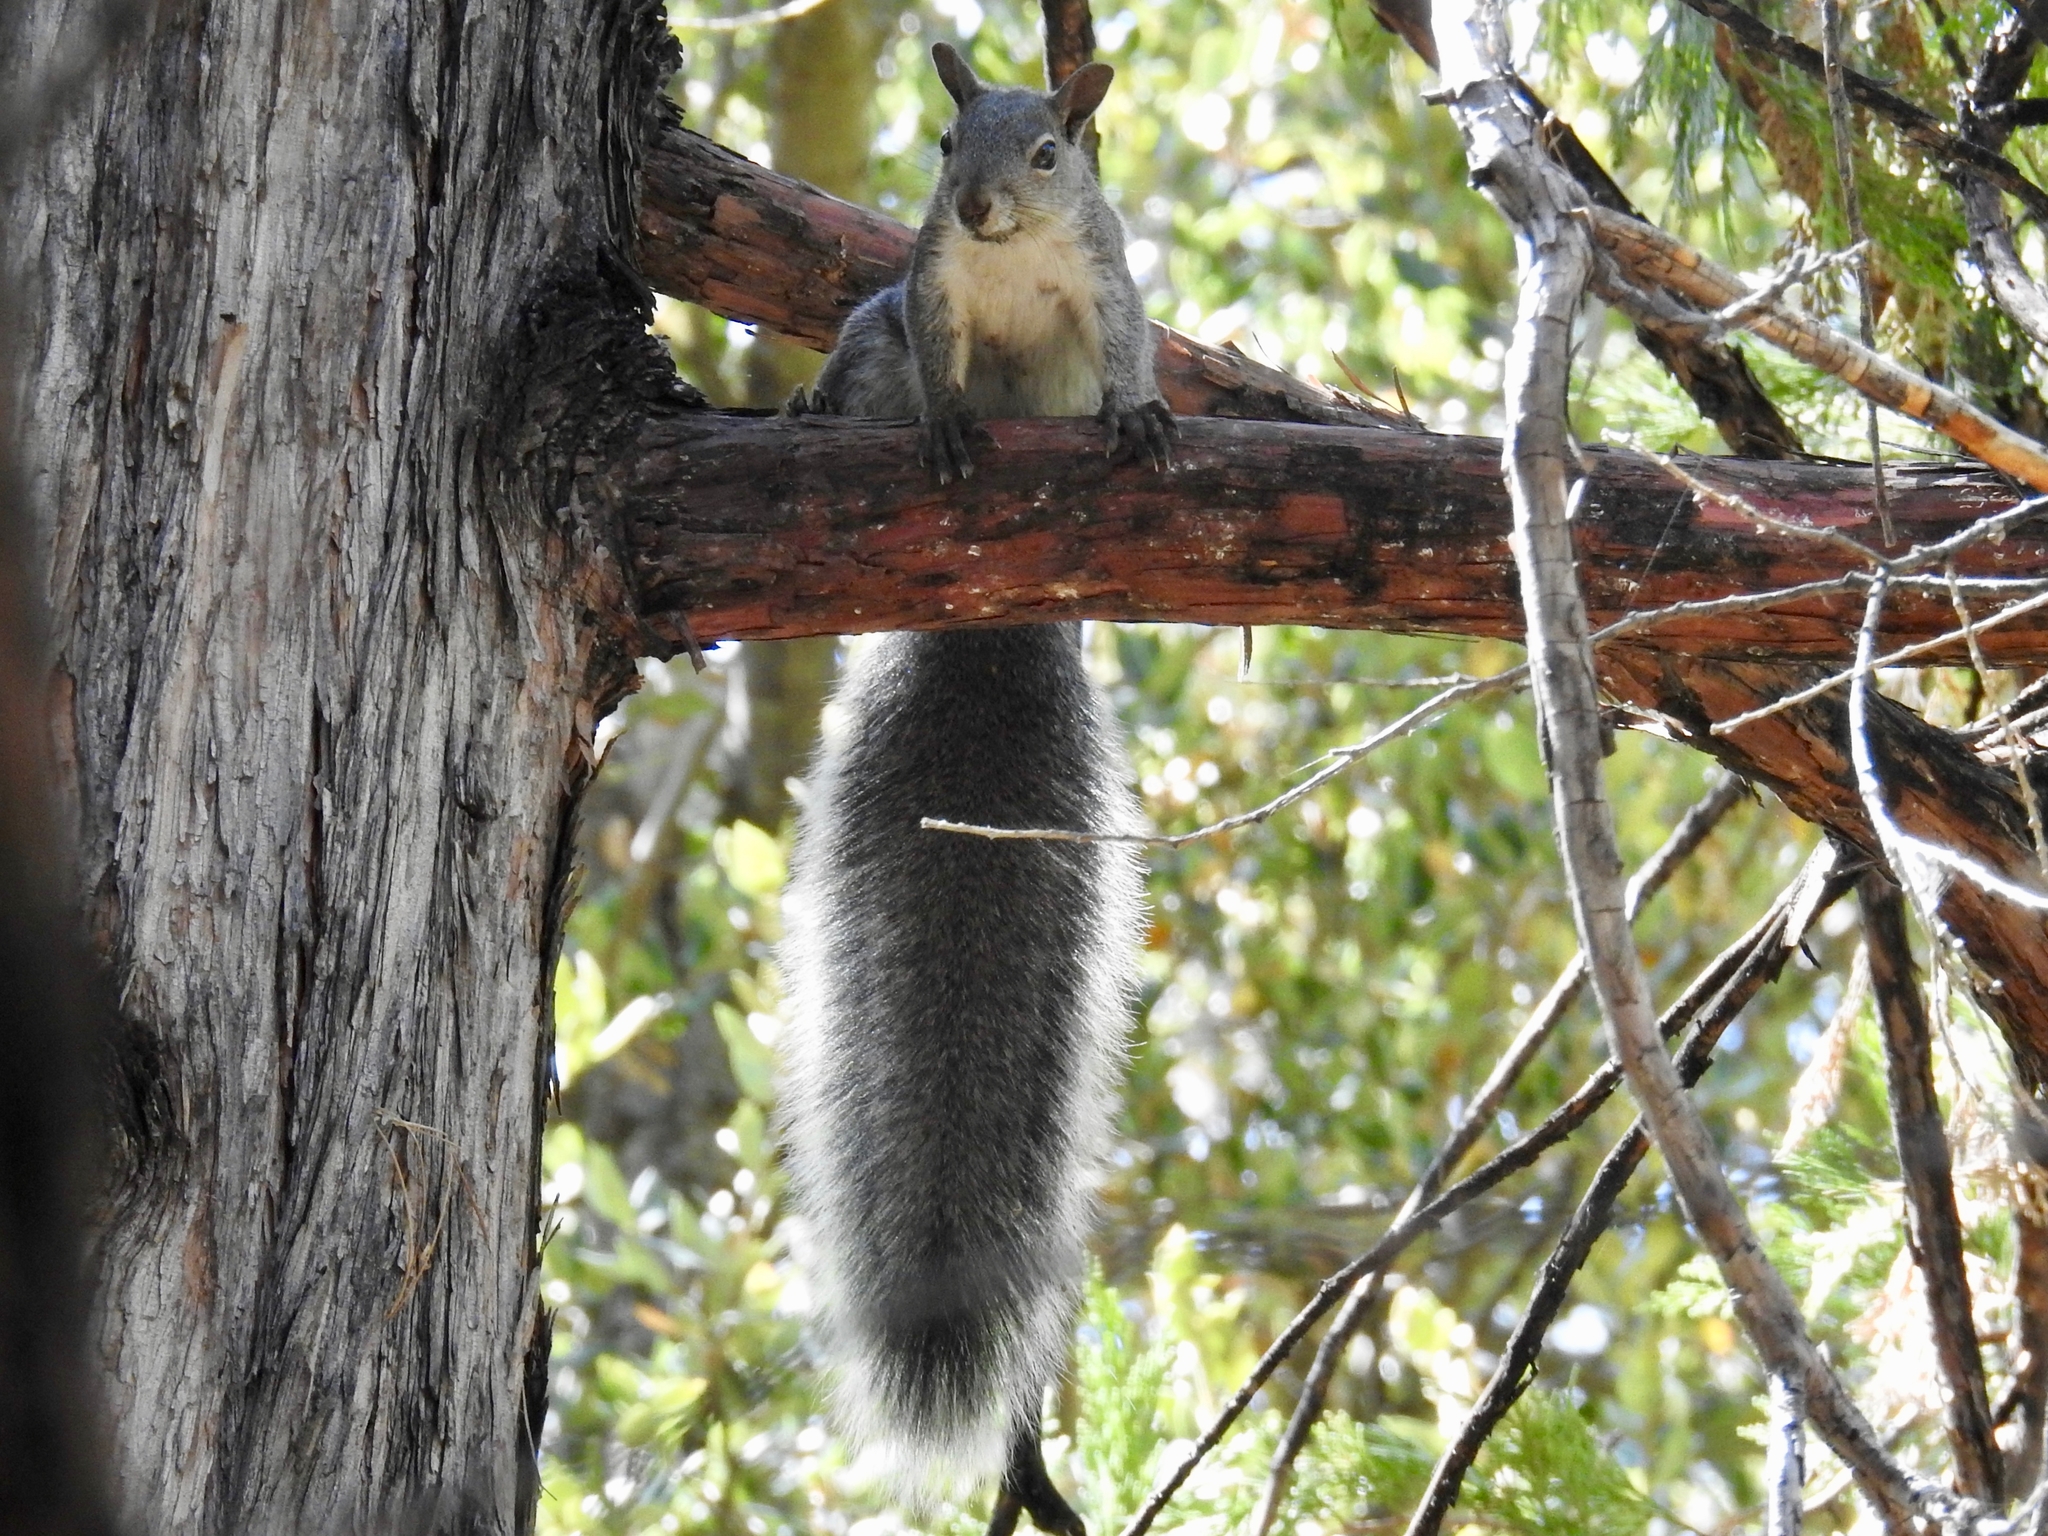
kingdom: Animalia
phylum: Chordata
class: Mammalia
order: Rodentia
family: Sciuridae
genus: Sciurus
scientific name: Sciurus griseus
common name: Western gray squirrel
